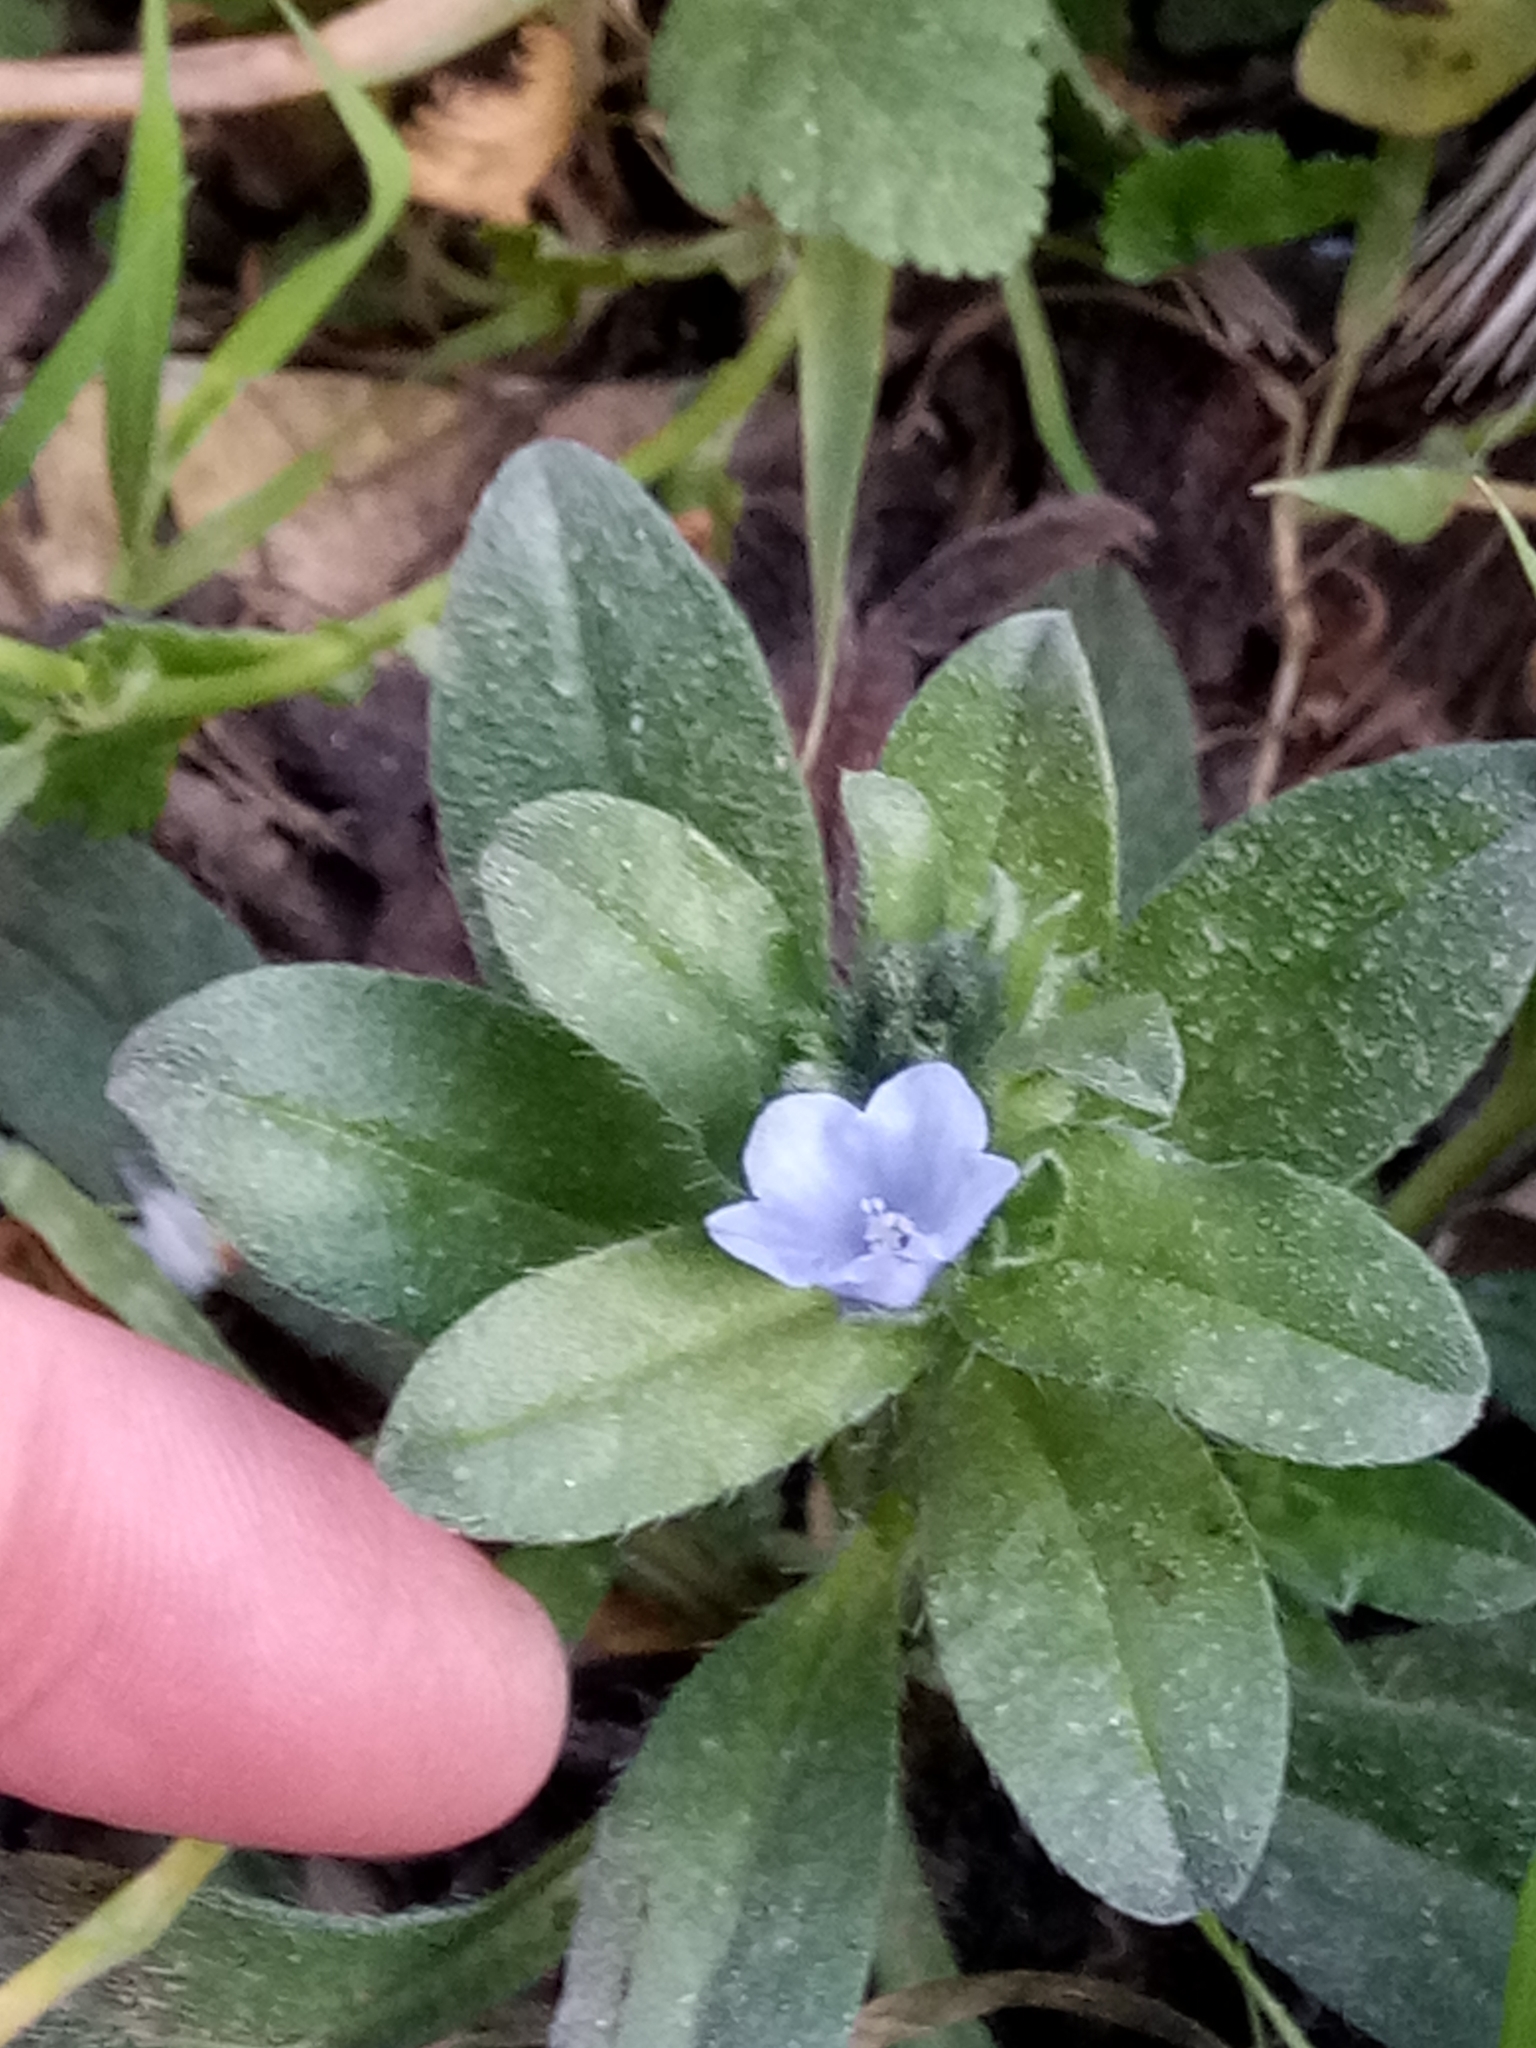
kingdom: Plantae
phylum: Tracheophyta
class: Magnoliopsida
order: Boraginales
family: Boraginaceae
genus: Echium
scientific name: Echium parviflorum
